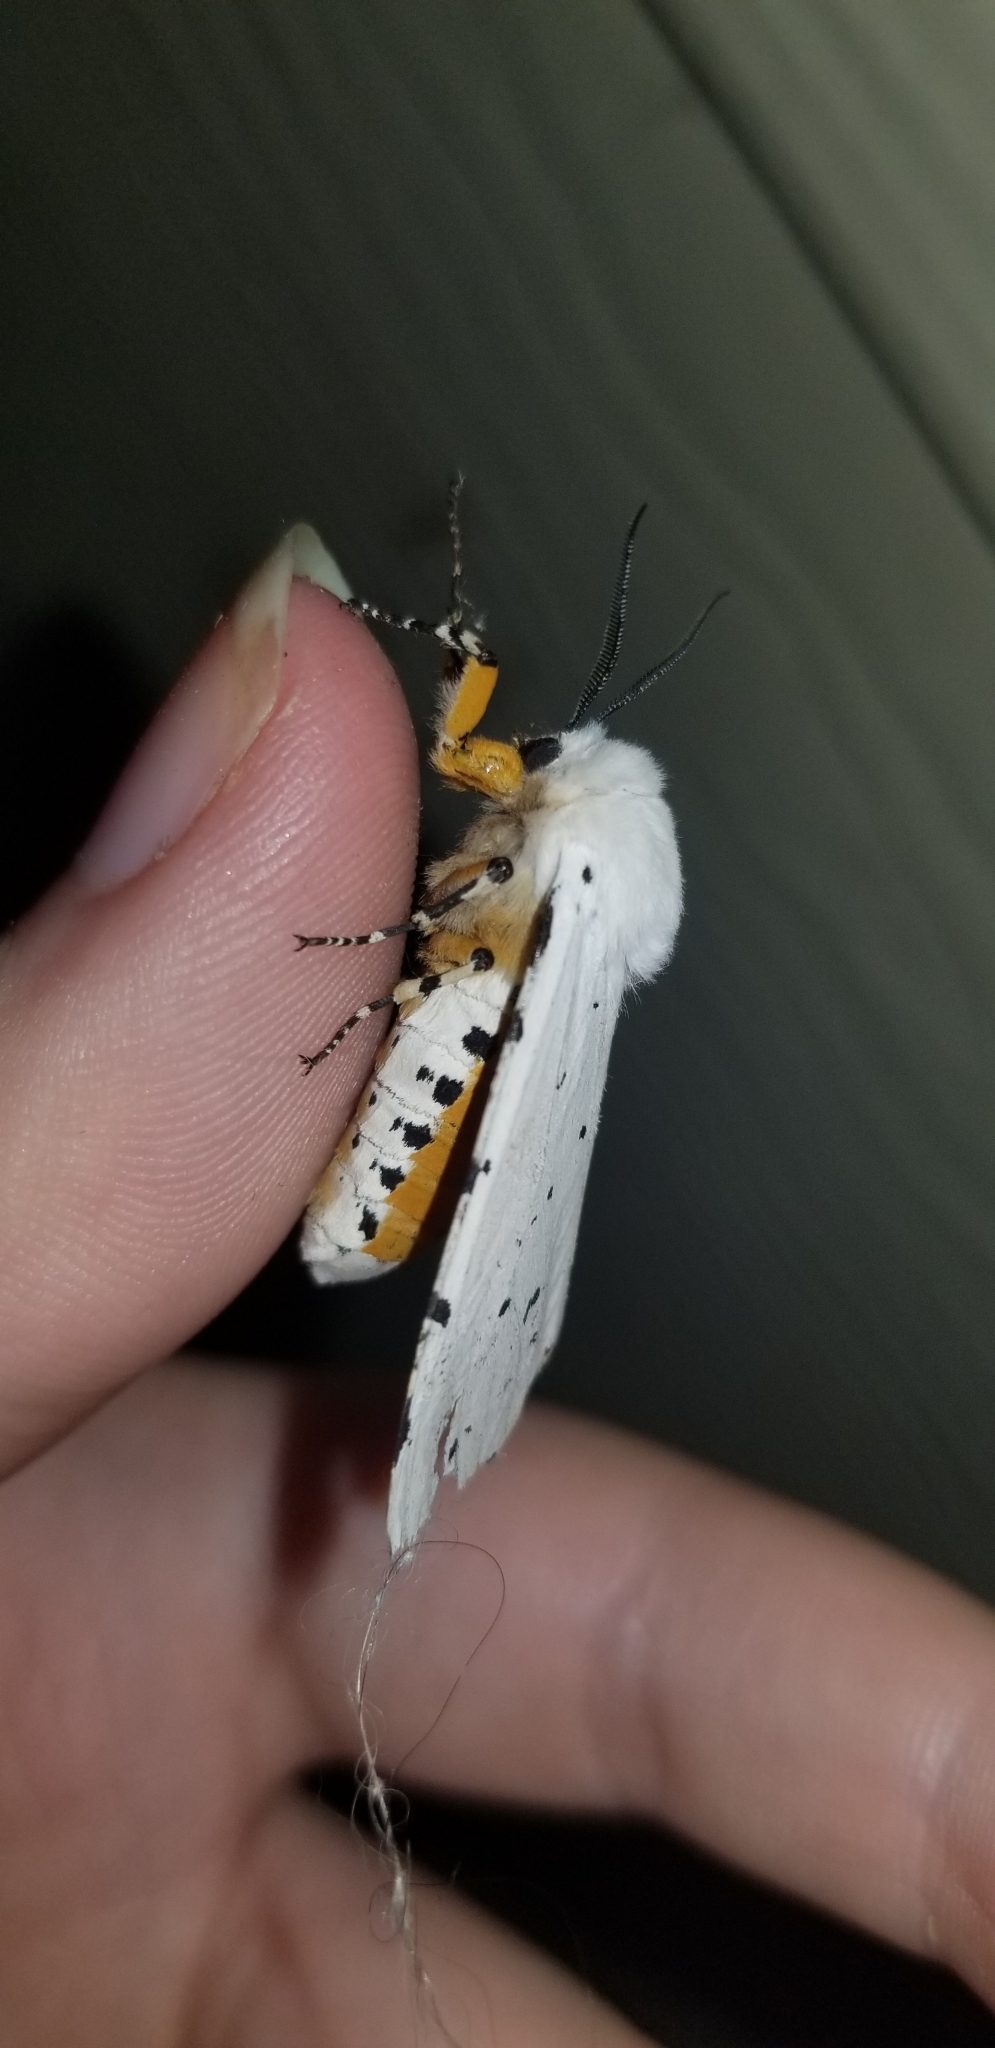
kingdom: Animalia
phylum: Arthropoda
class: Insecta
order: Lepidoptera
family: Erebidae
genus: Estigmene
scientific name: Estigmene acrea
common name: Salt marsh moth
